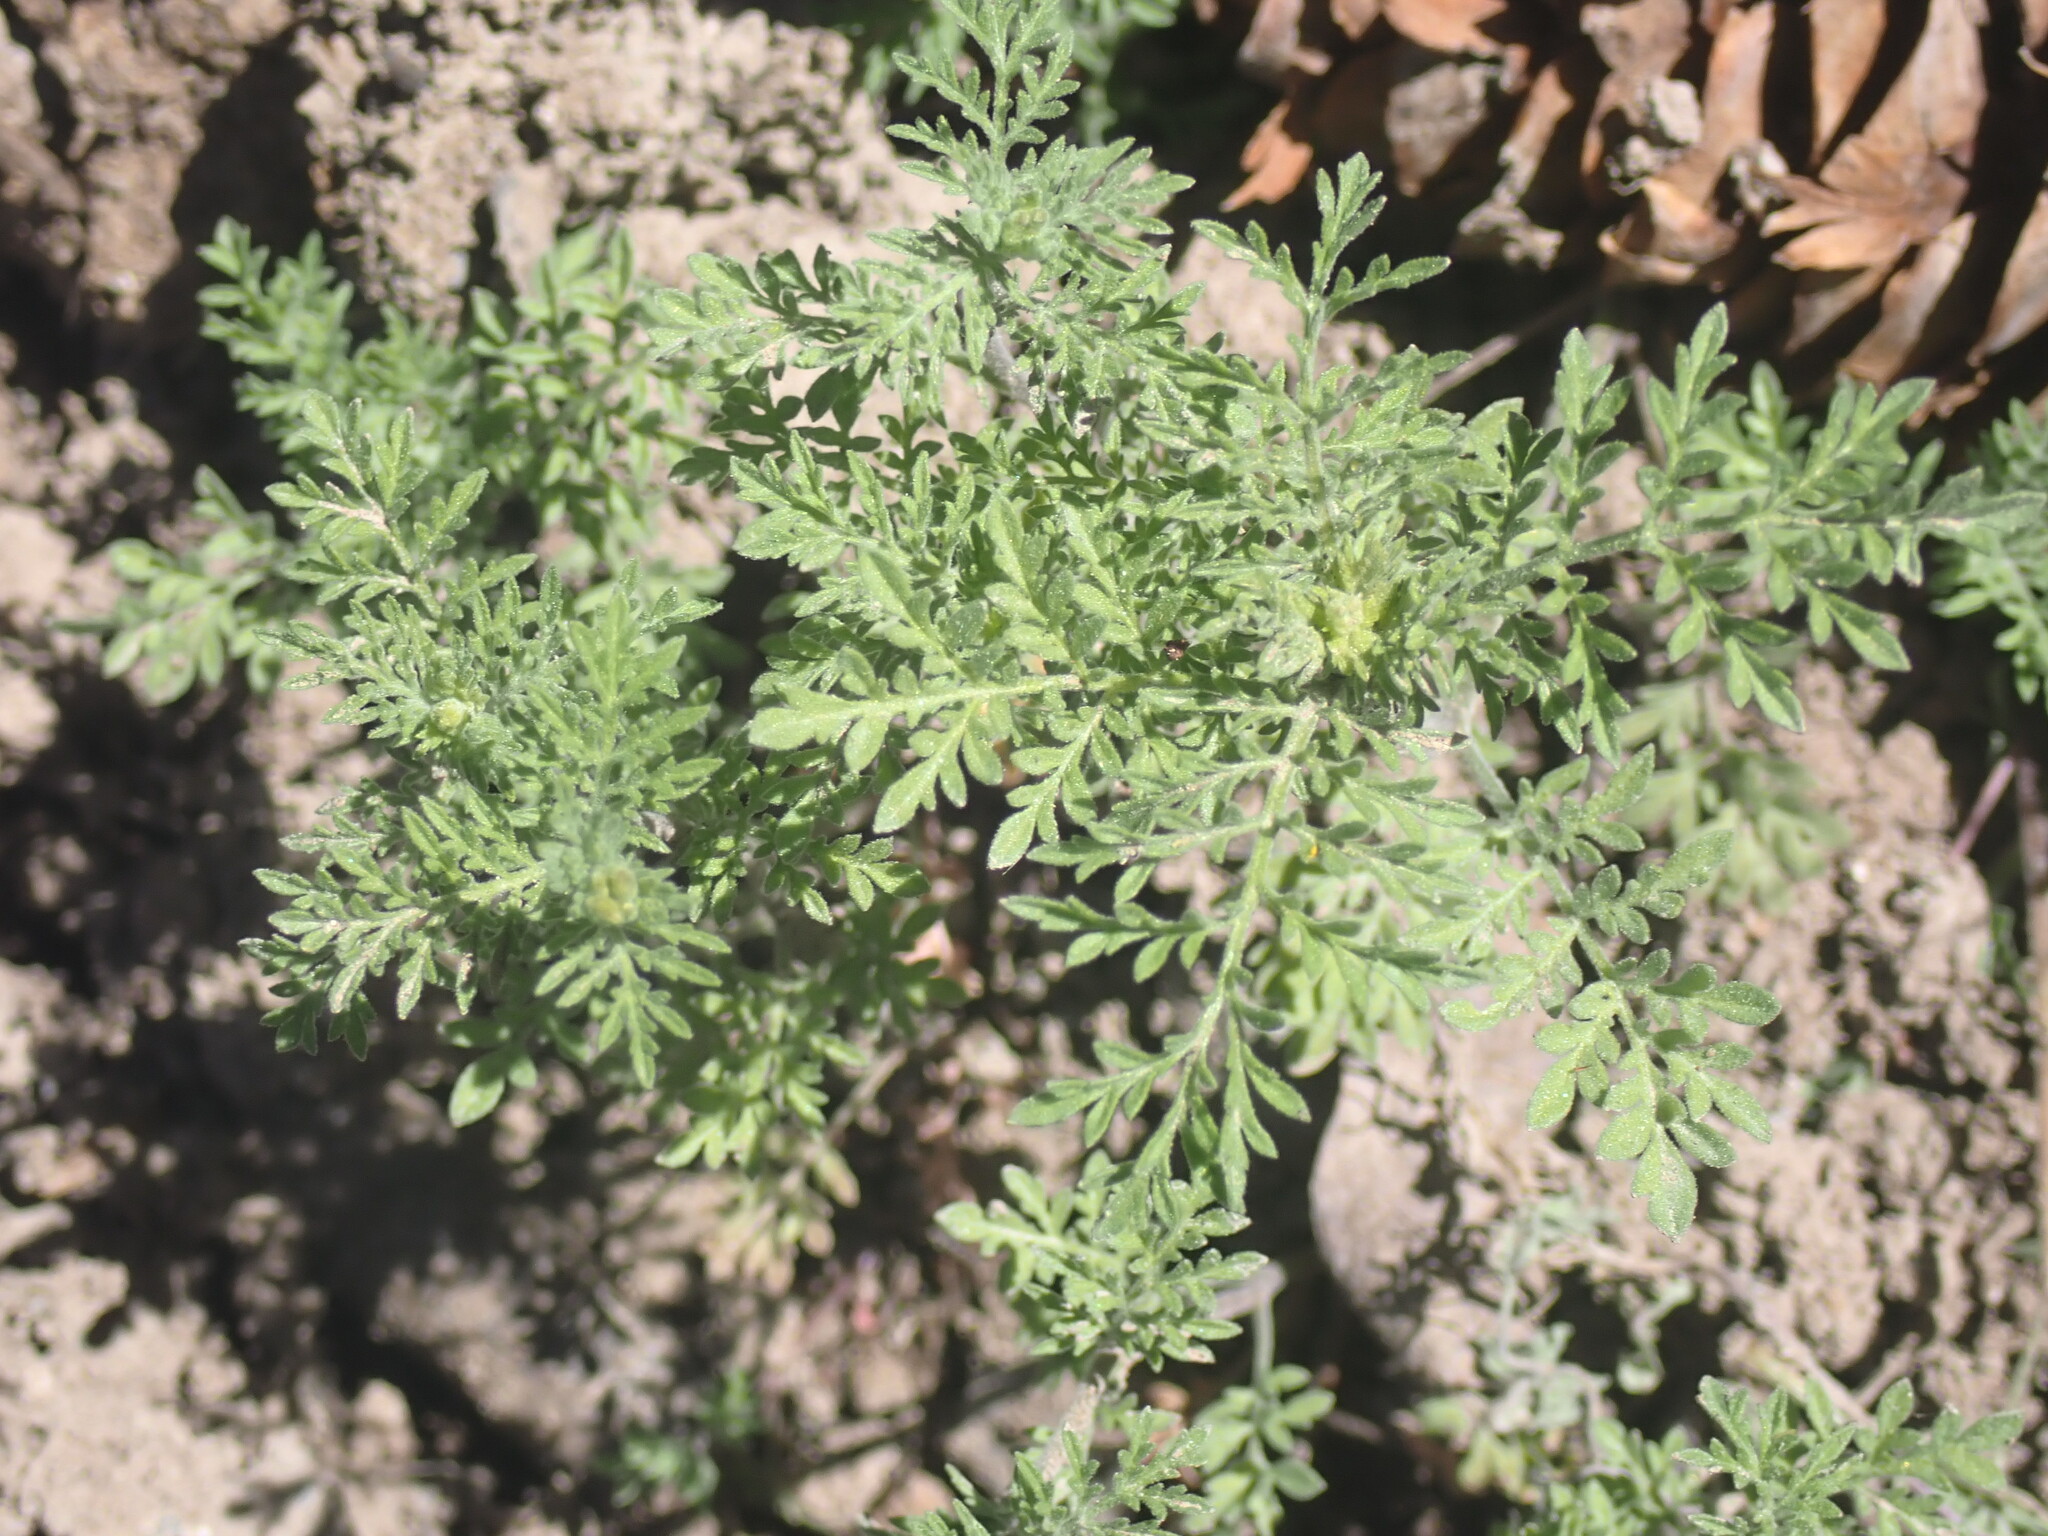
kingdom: Plantae
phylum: Tracheophyta
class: Magnoliopsida
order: Brassicales
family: Brassicaceae
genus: Descurainia
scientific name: Descurainia sophia
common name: Flixweed
